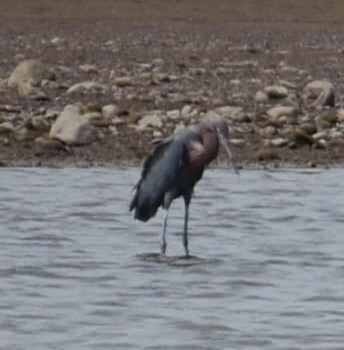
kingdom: Animalia
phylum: Chordata
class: Aves
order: Pelecaniformes
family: Ardeidae
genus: Egretta
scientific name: Egretta rufescens
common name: Reddish egret
